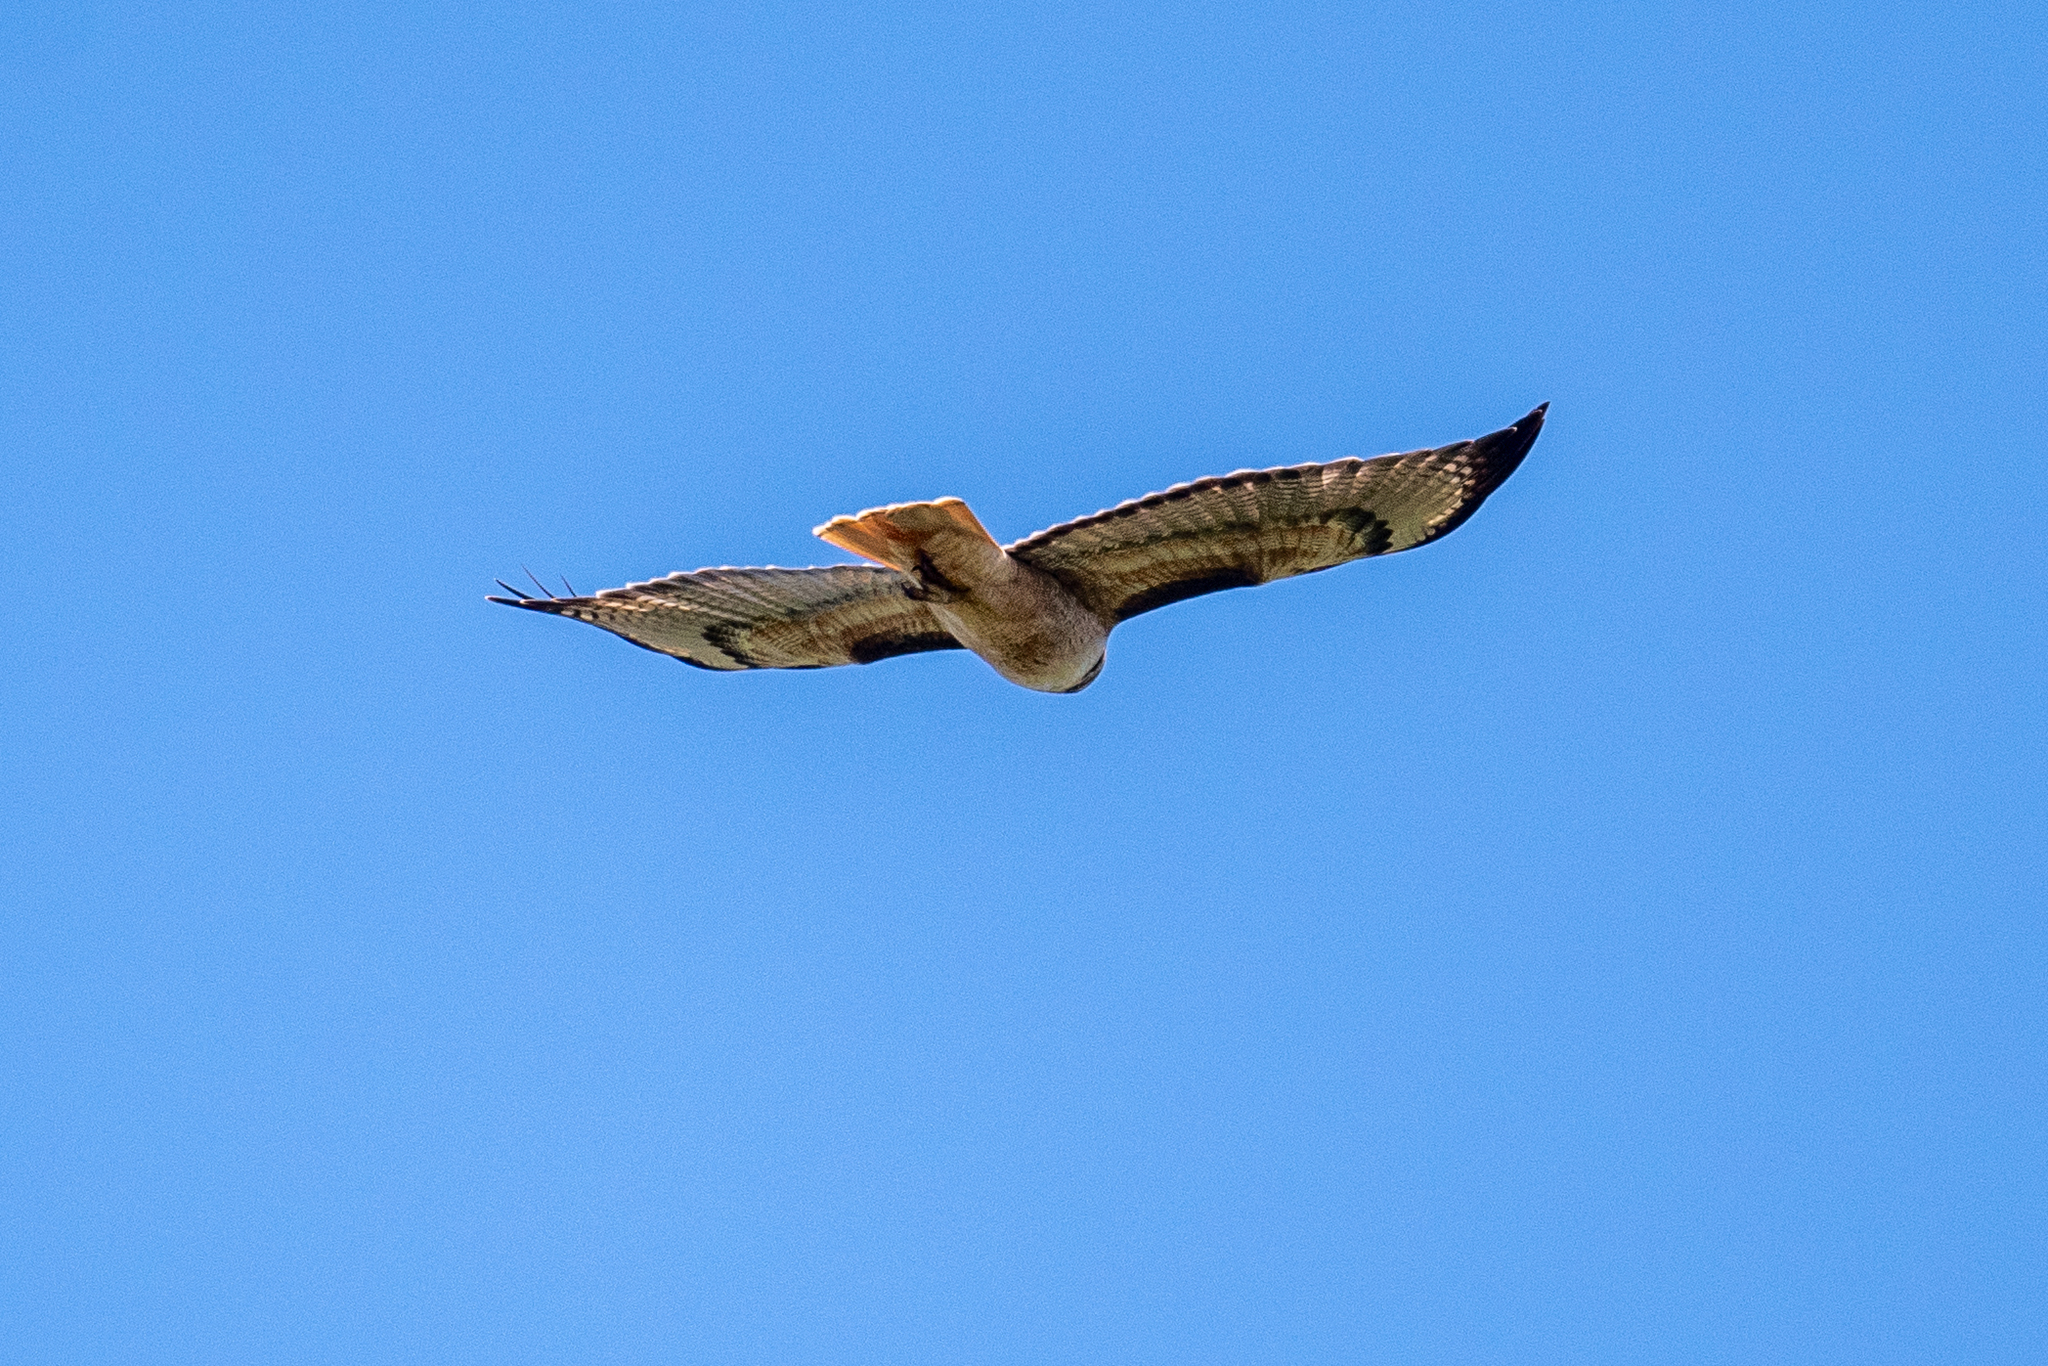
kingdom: Animalia
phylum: Chordata
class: Aves
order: Accipitriformes
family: Accipitridae
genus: Buteo
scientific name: Buteo jamaicensis
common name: Red-tailed hawk
